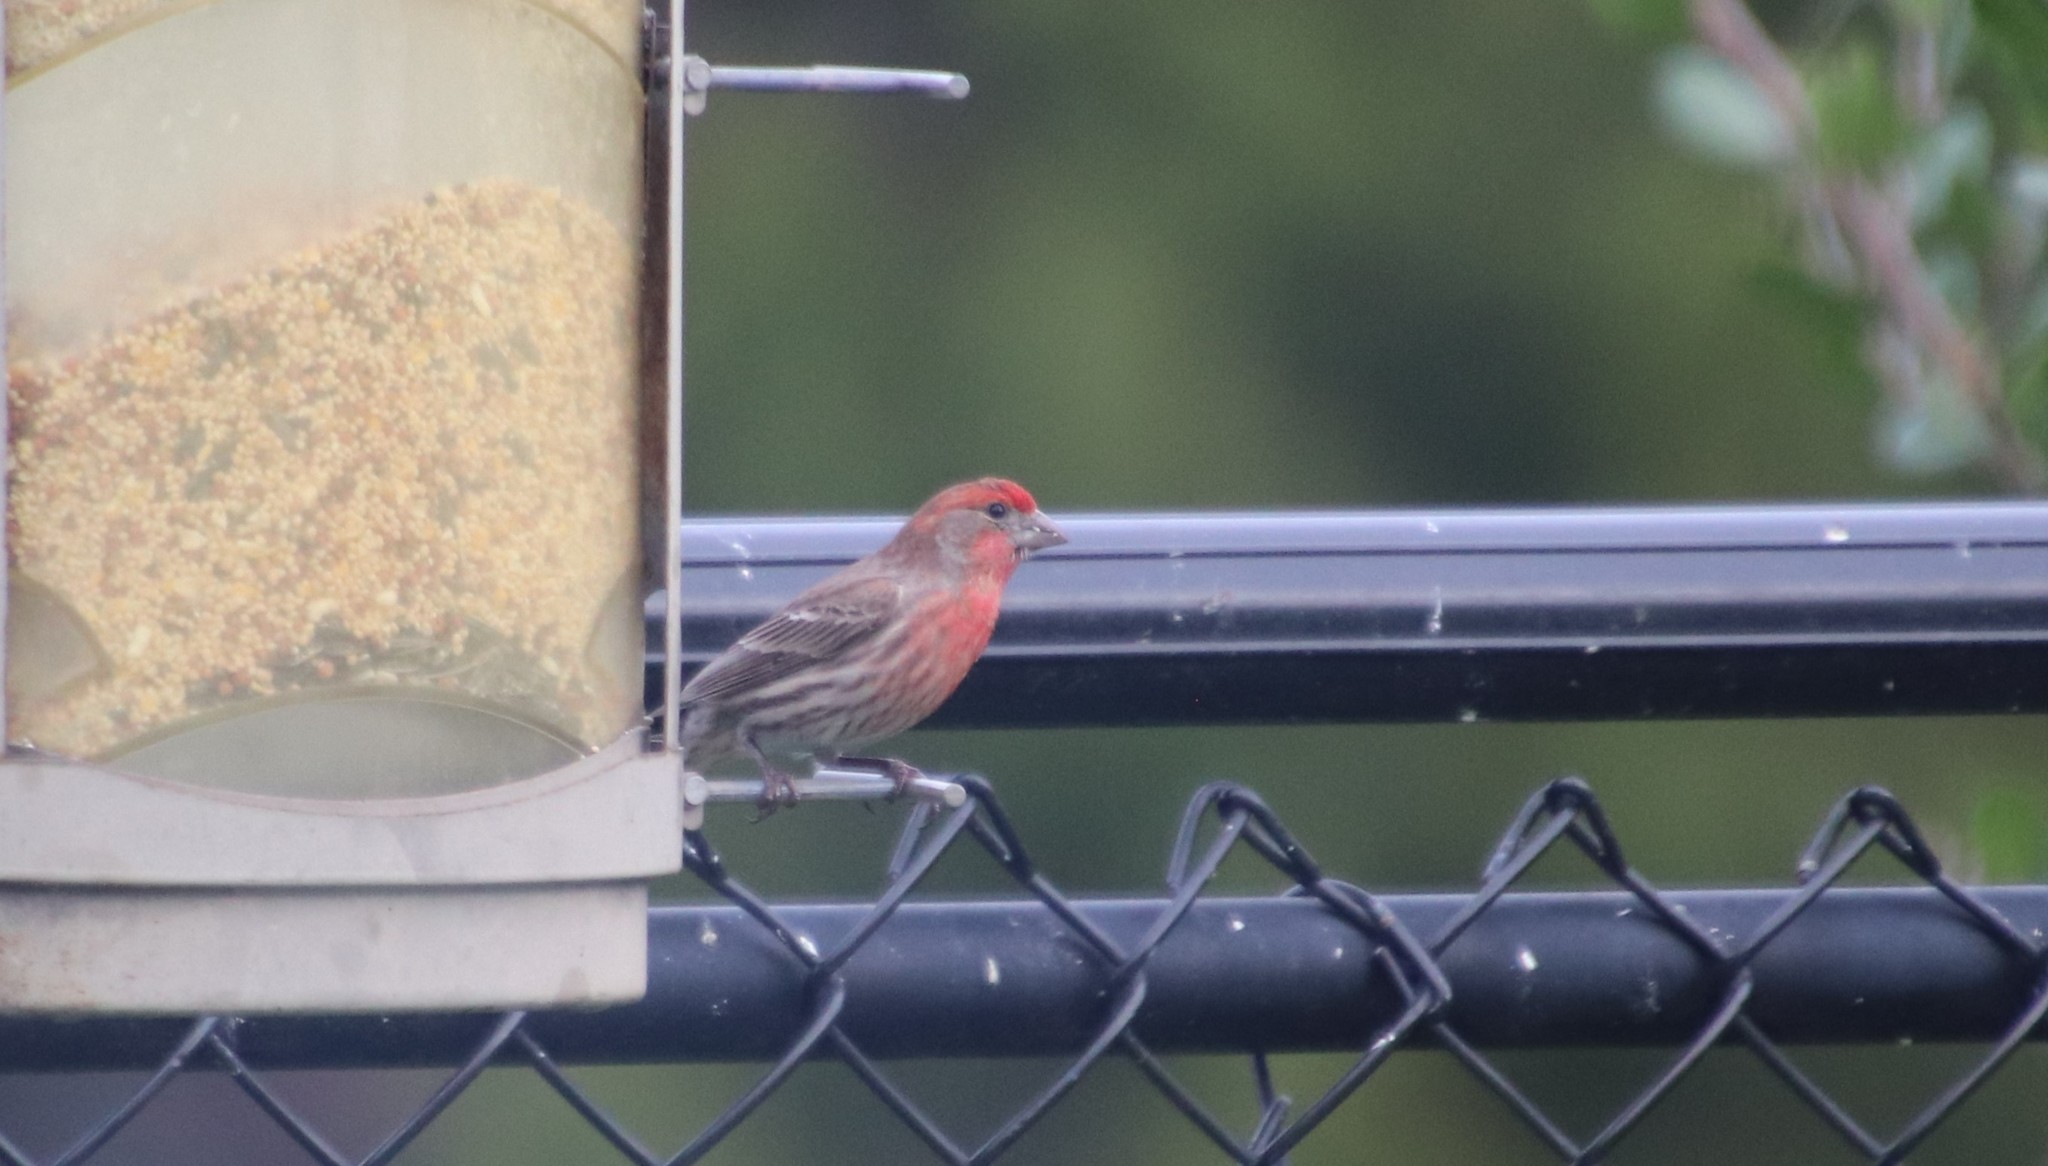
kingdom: Animalia
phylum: Chordata
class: Aves
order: Passeriformes
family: Fringillidae
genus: Haemorhous
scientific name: Haemorhous mexicanus
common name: House finch
